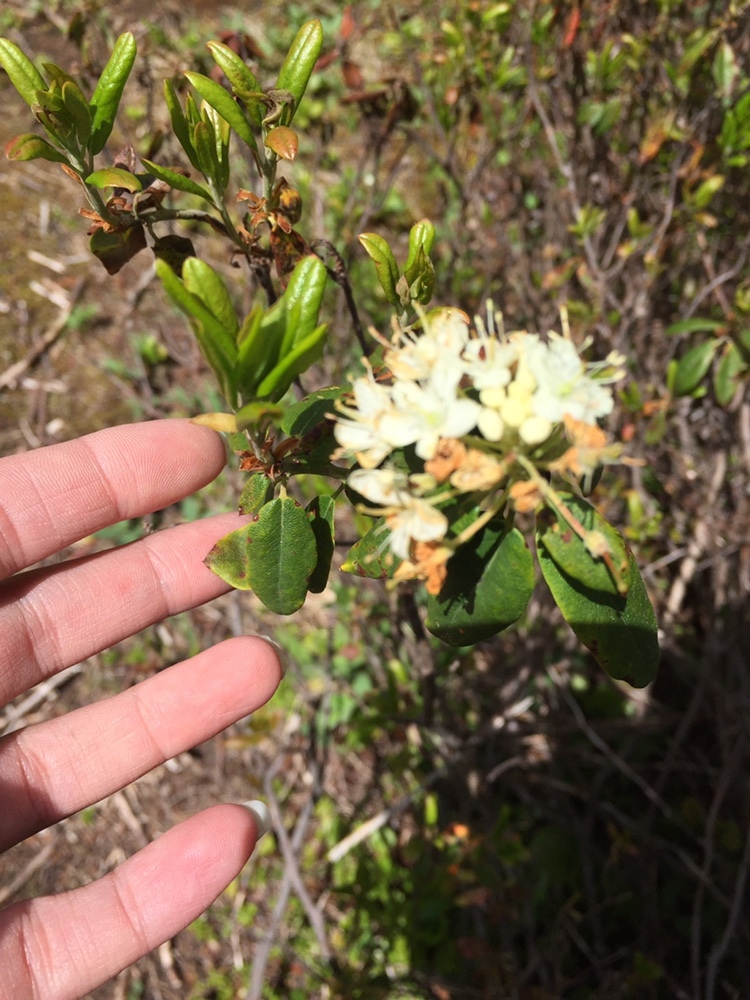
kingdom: Plantae
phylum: Tracheophyta
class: Magnoliopsida
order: Ericales
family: Ericaceae
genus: Rhododendron
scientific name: Rhododendron columbianum
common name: Western labrador tea
